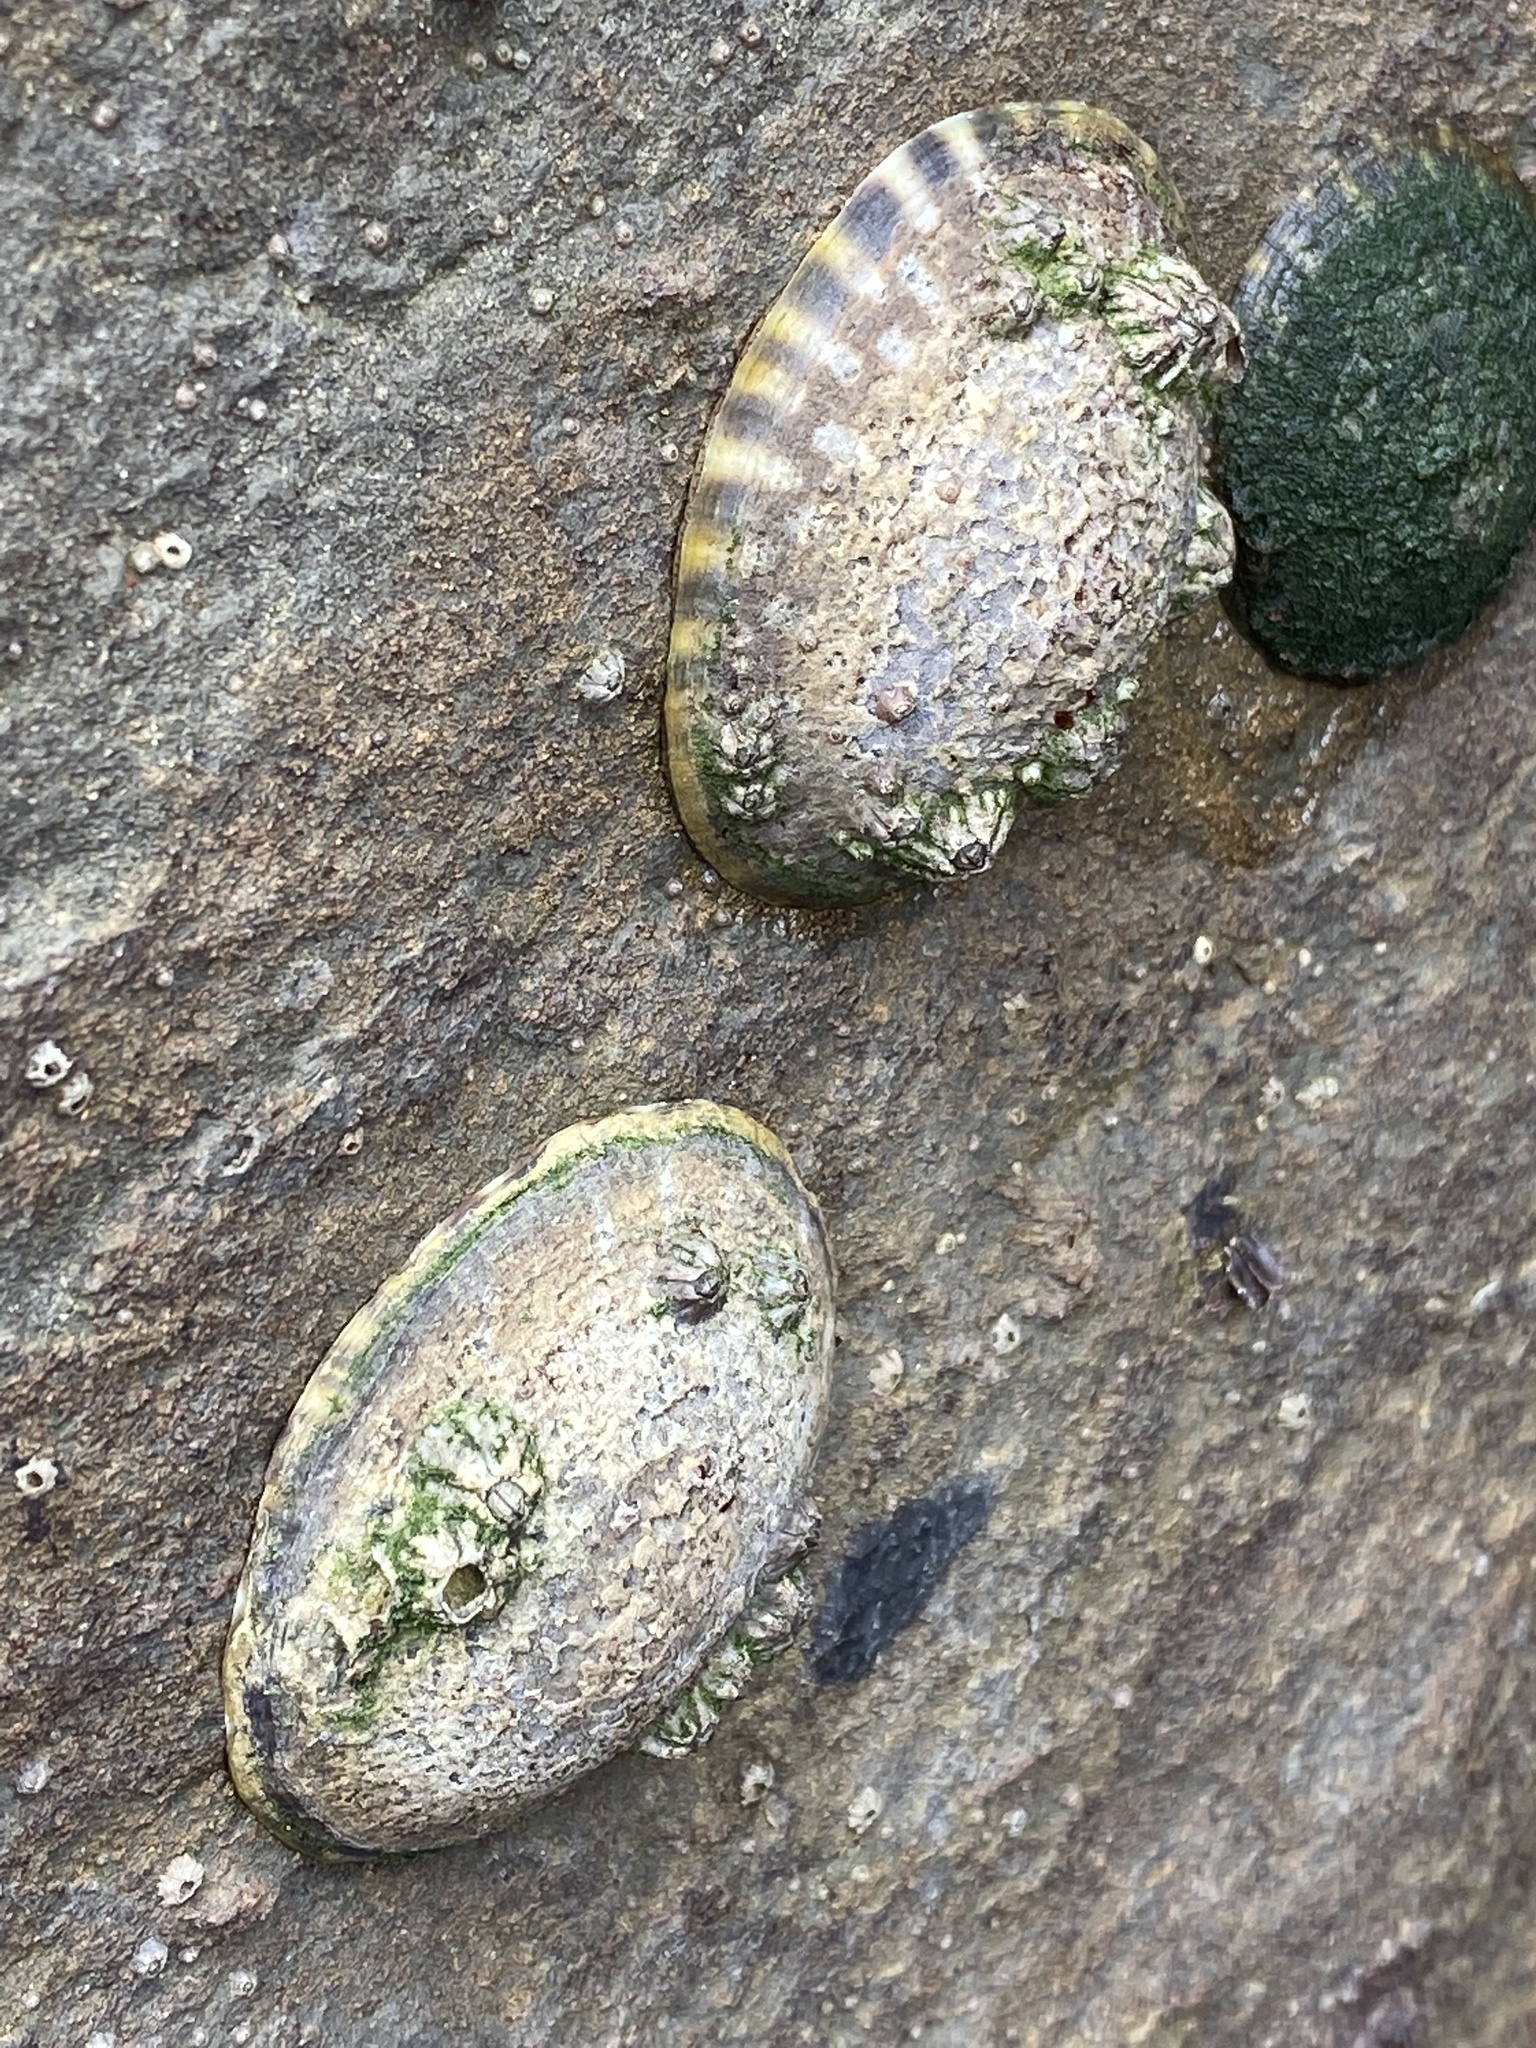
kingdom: Animalia
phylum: Mollusca
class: Gastropoda
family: Lottiidae
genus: Lottia
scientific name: Lottia gigantea
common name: Owl limpet
